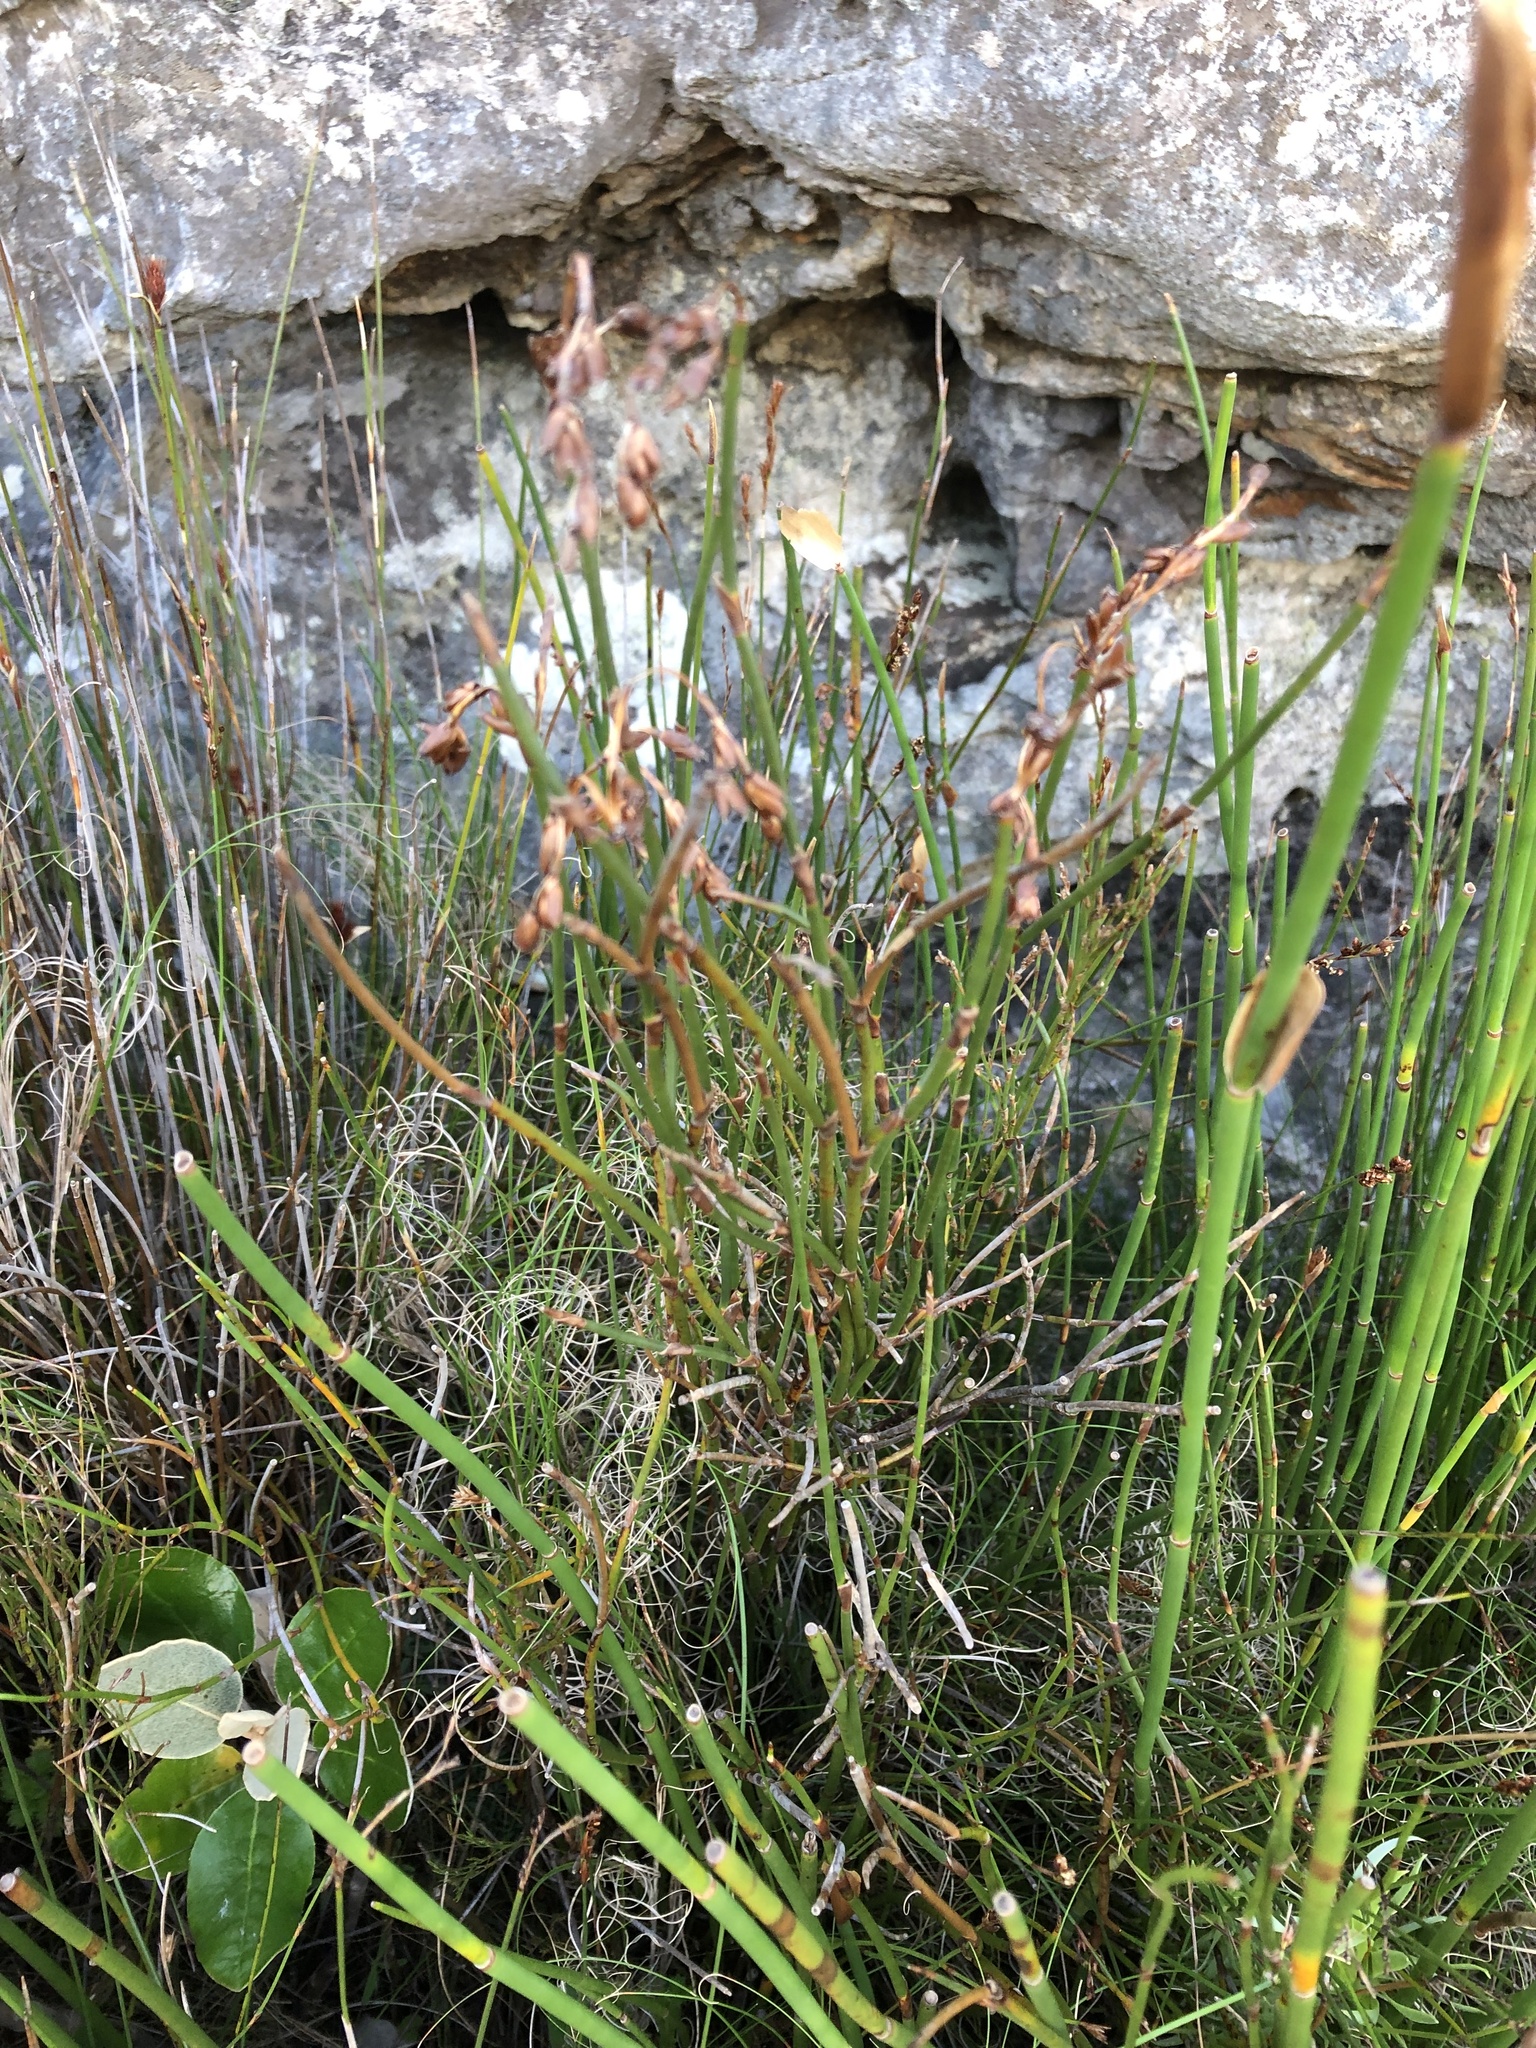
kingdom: Plantae
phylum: Tracheophyta
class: Liliopsida
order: Poales
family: Restionaceae
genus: Restio
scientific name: Restio egregius
